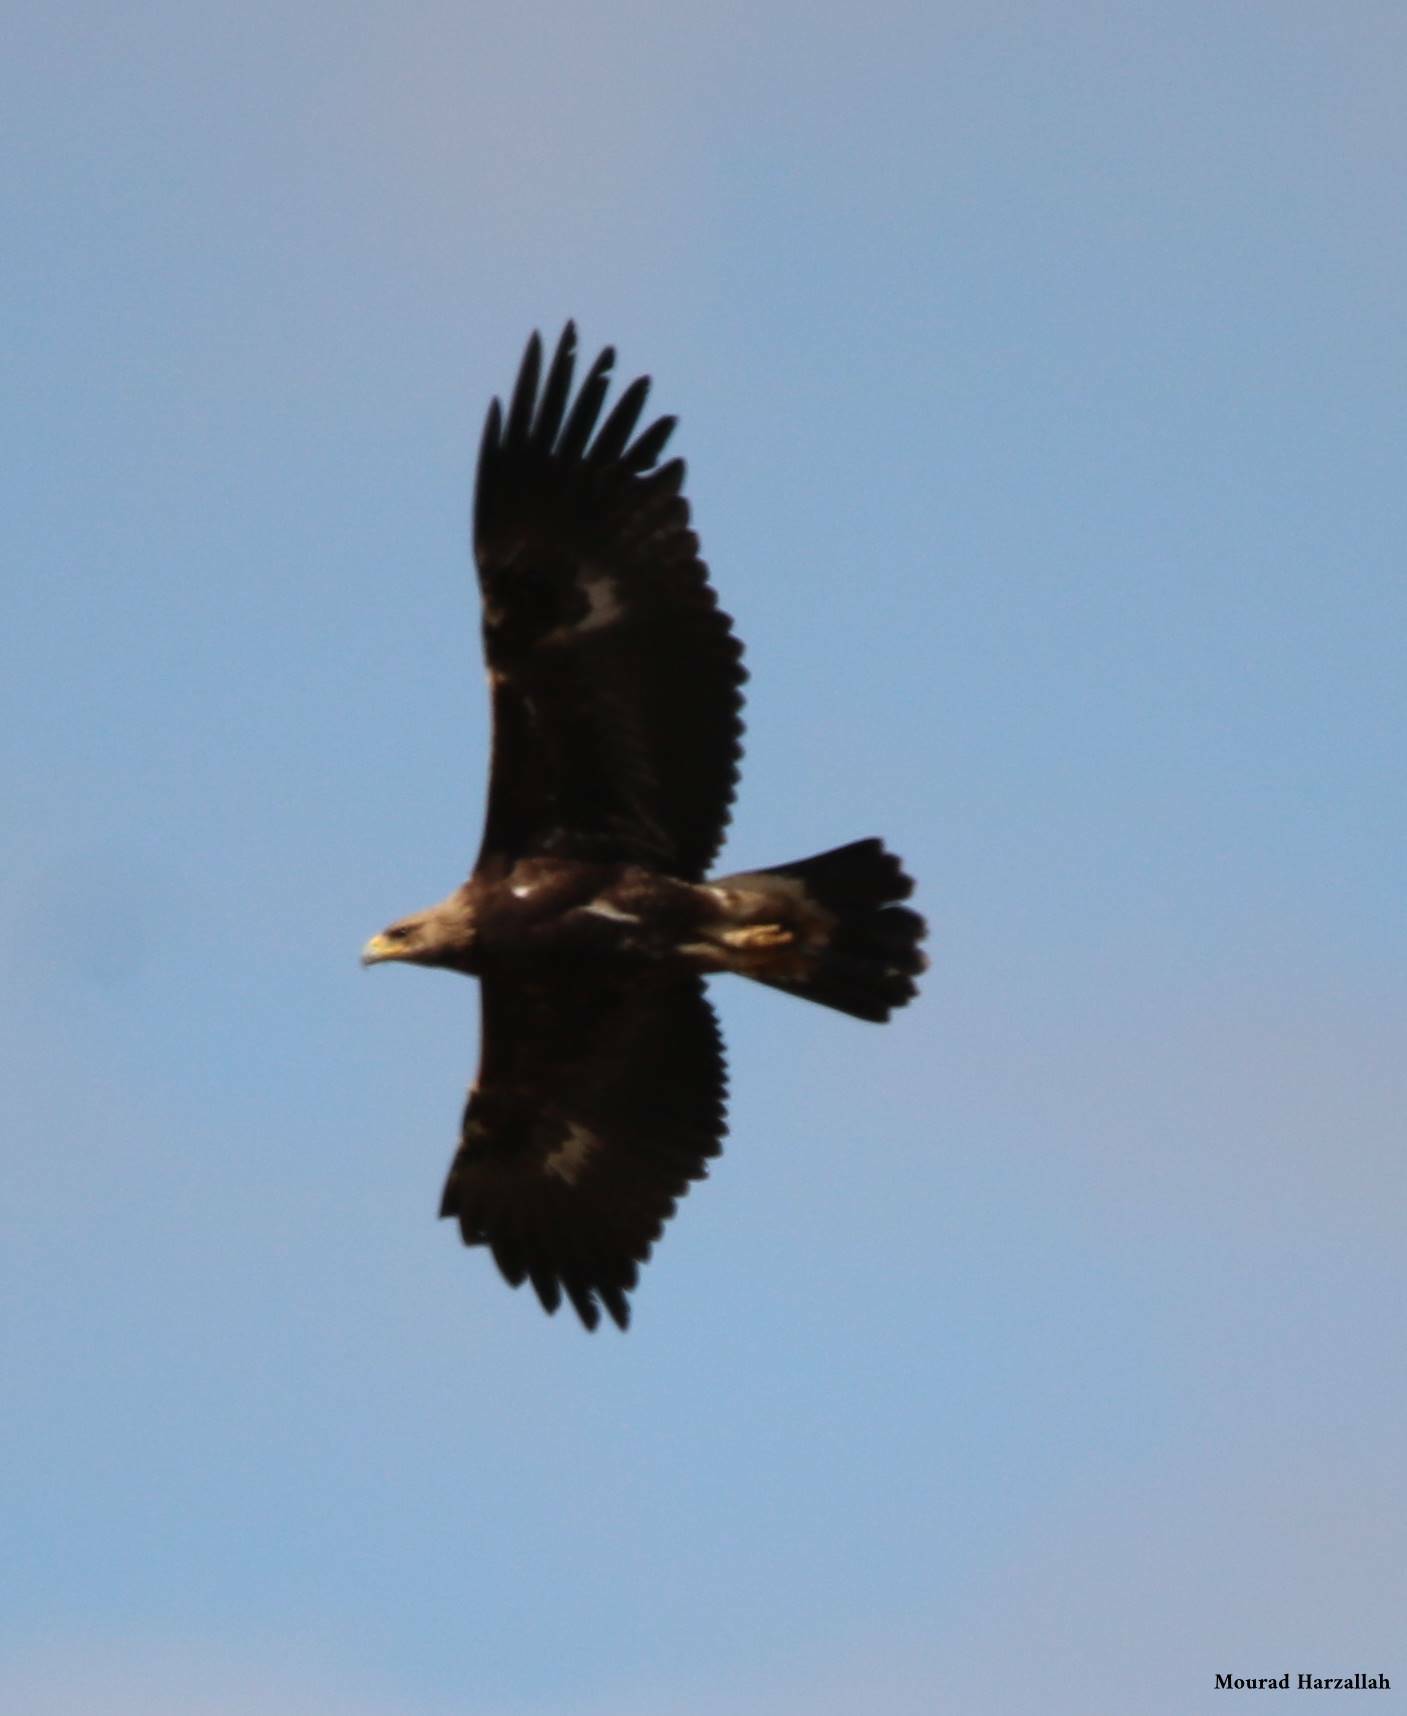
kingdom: Animalia
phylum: Chordata
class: Aves
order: Accipitriformes
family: Accipitridae
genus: Aquila
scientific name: Aquila chrysaetos
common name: Golden eagle
